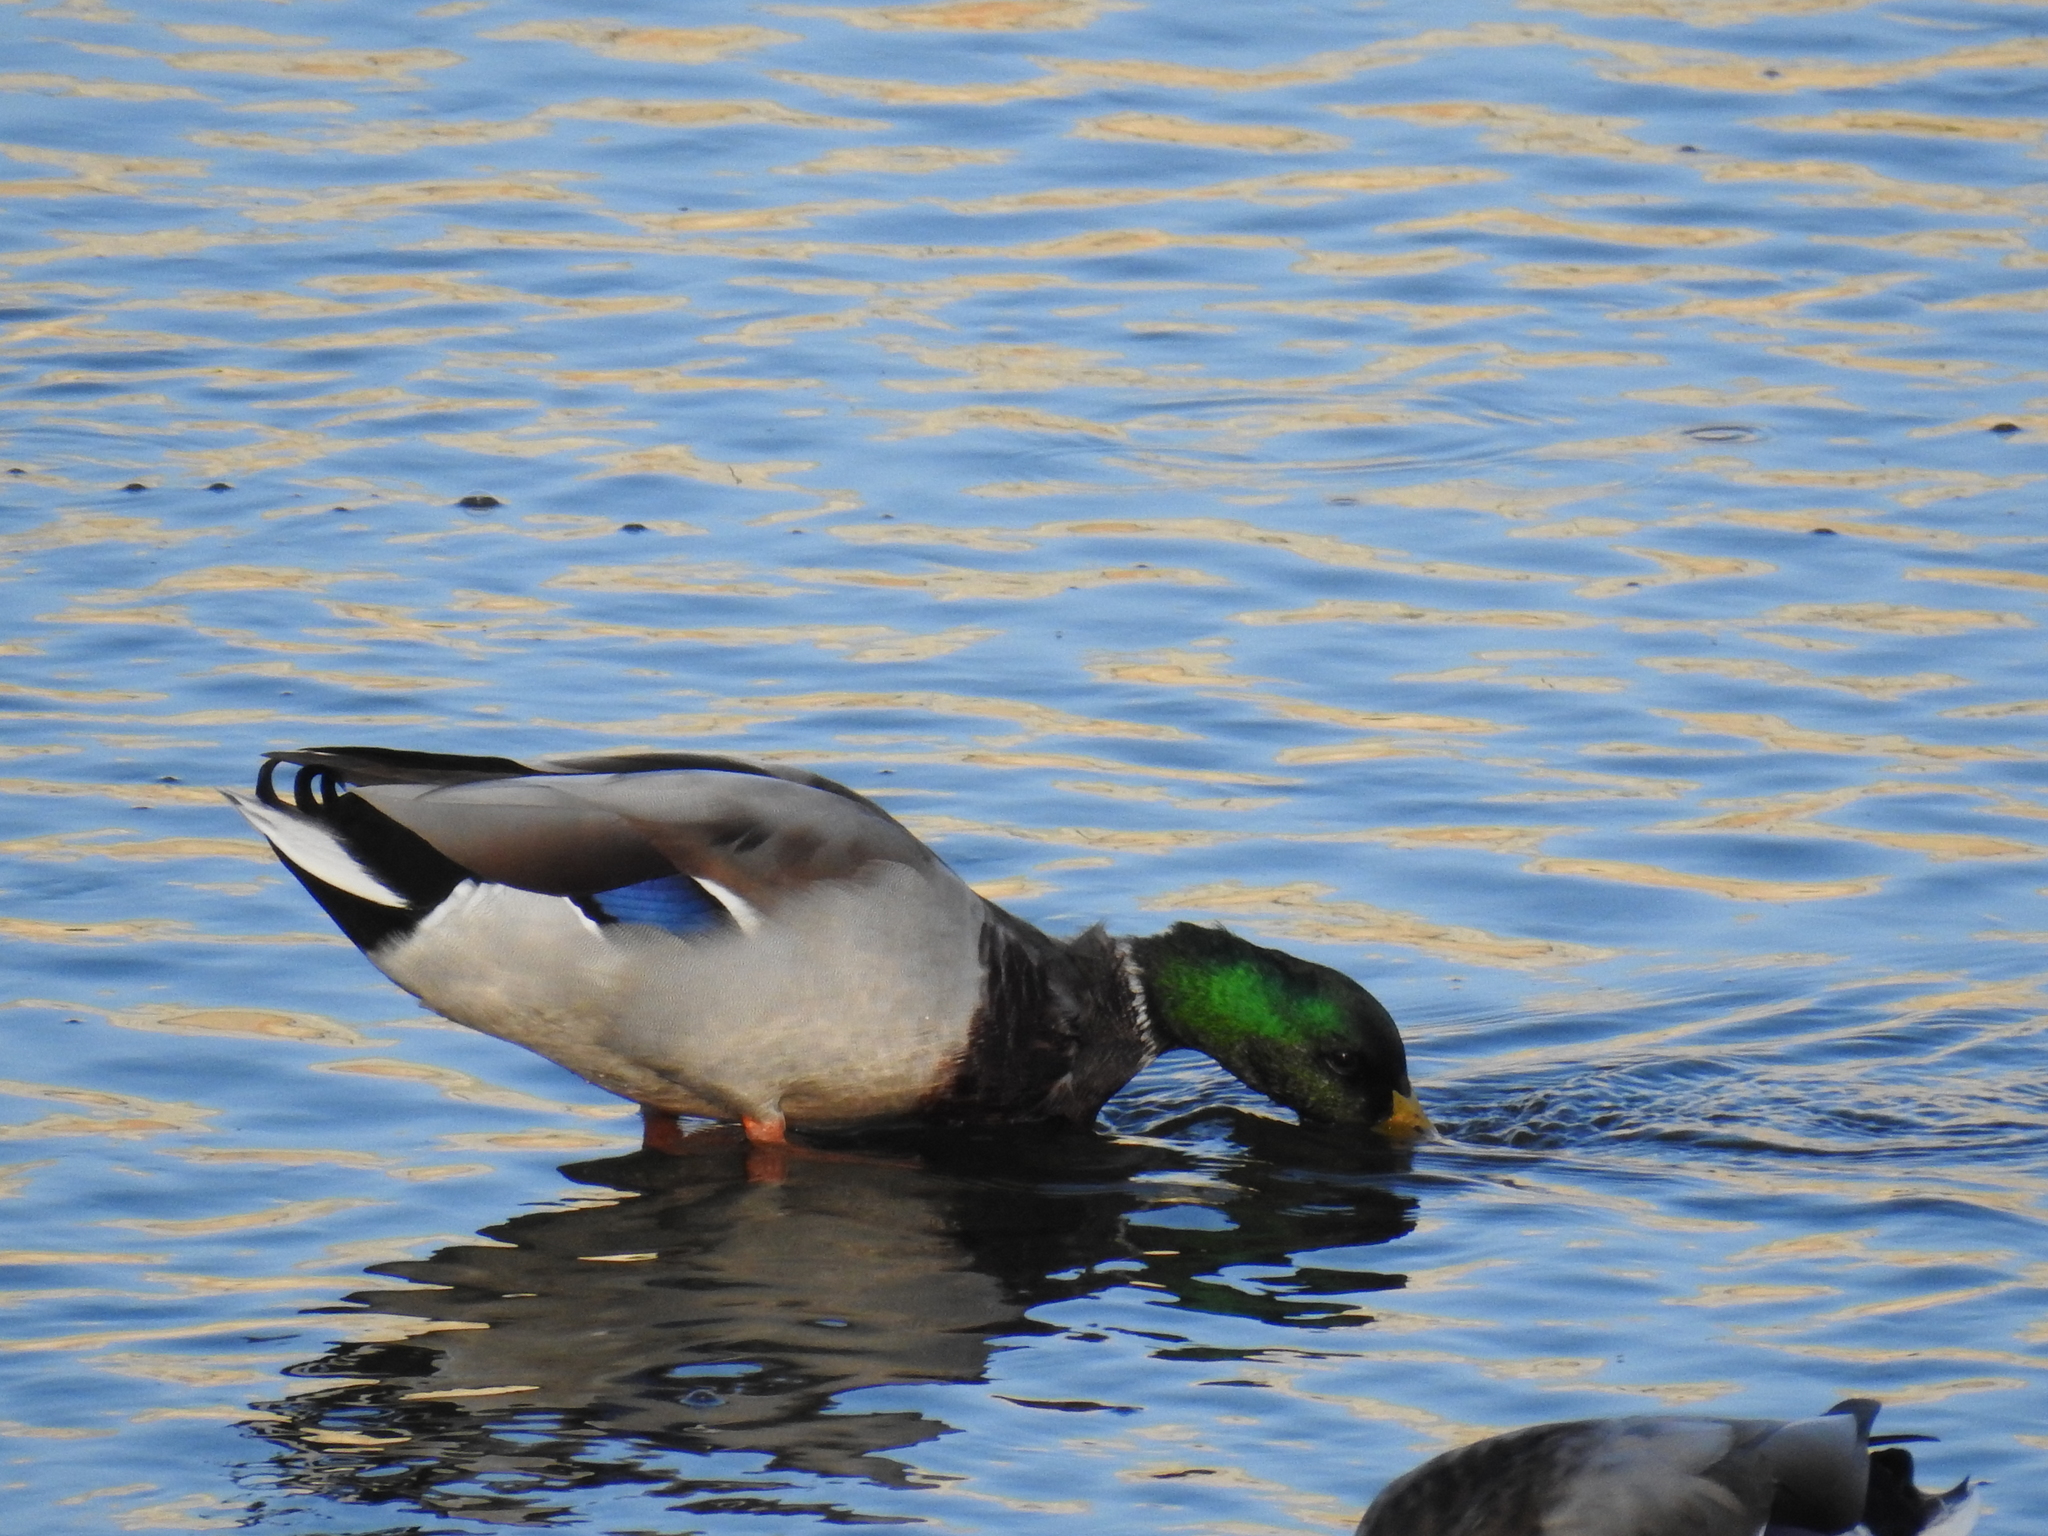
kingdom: Animalia
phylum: Chordata
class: Aves
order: Anseriformes
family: Anatidae
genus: Anas
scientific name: Anas platyrhynchos
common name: Mallard
